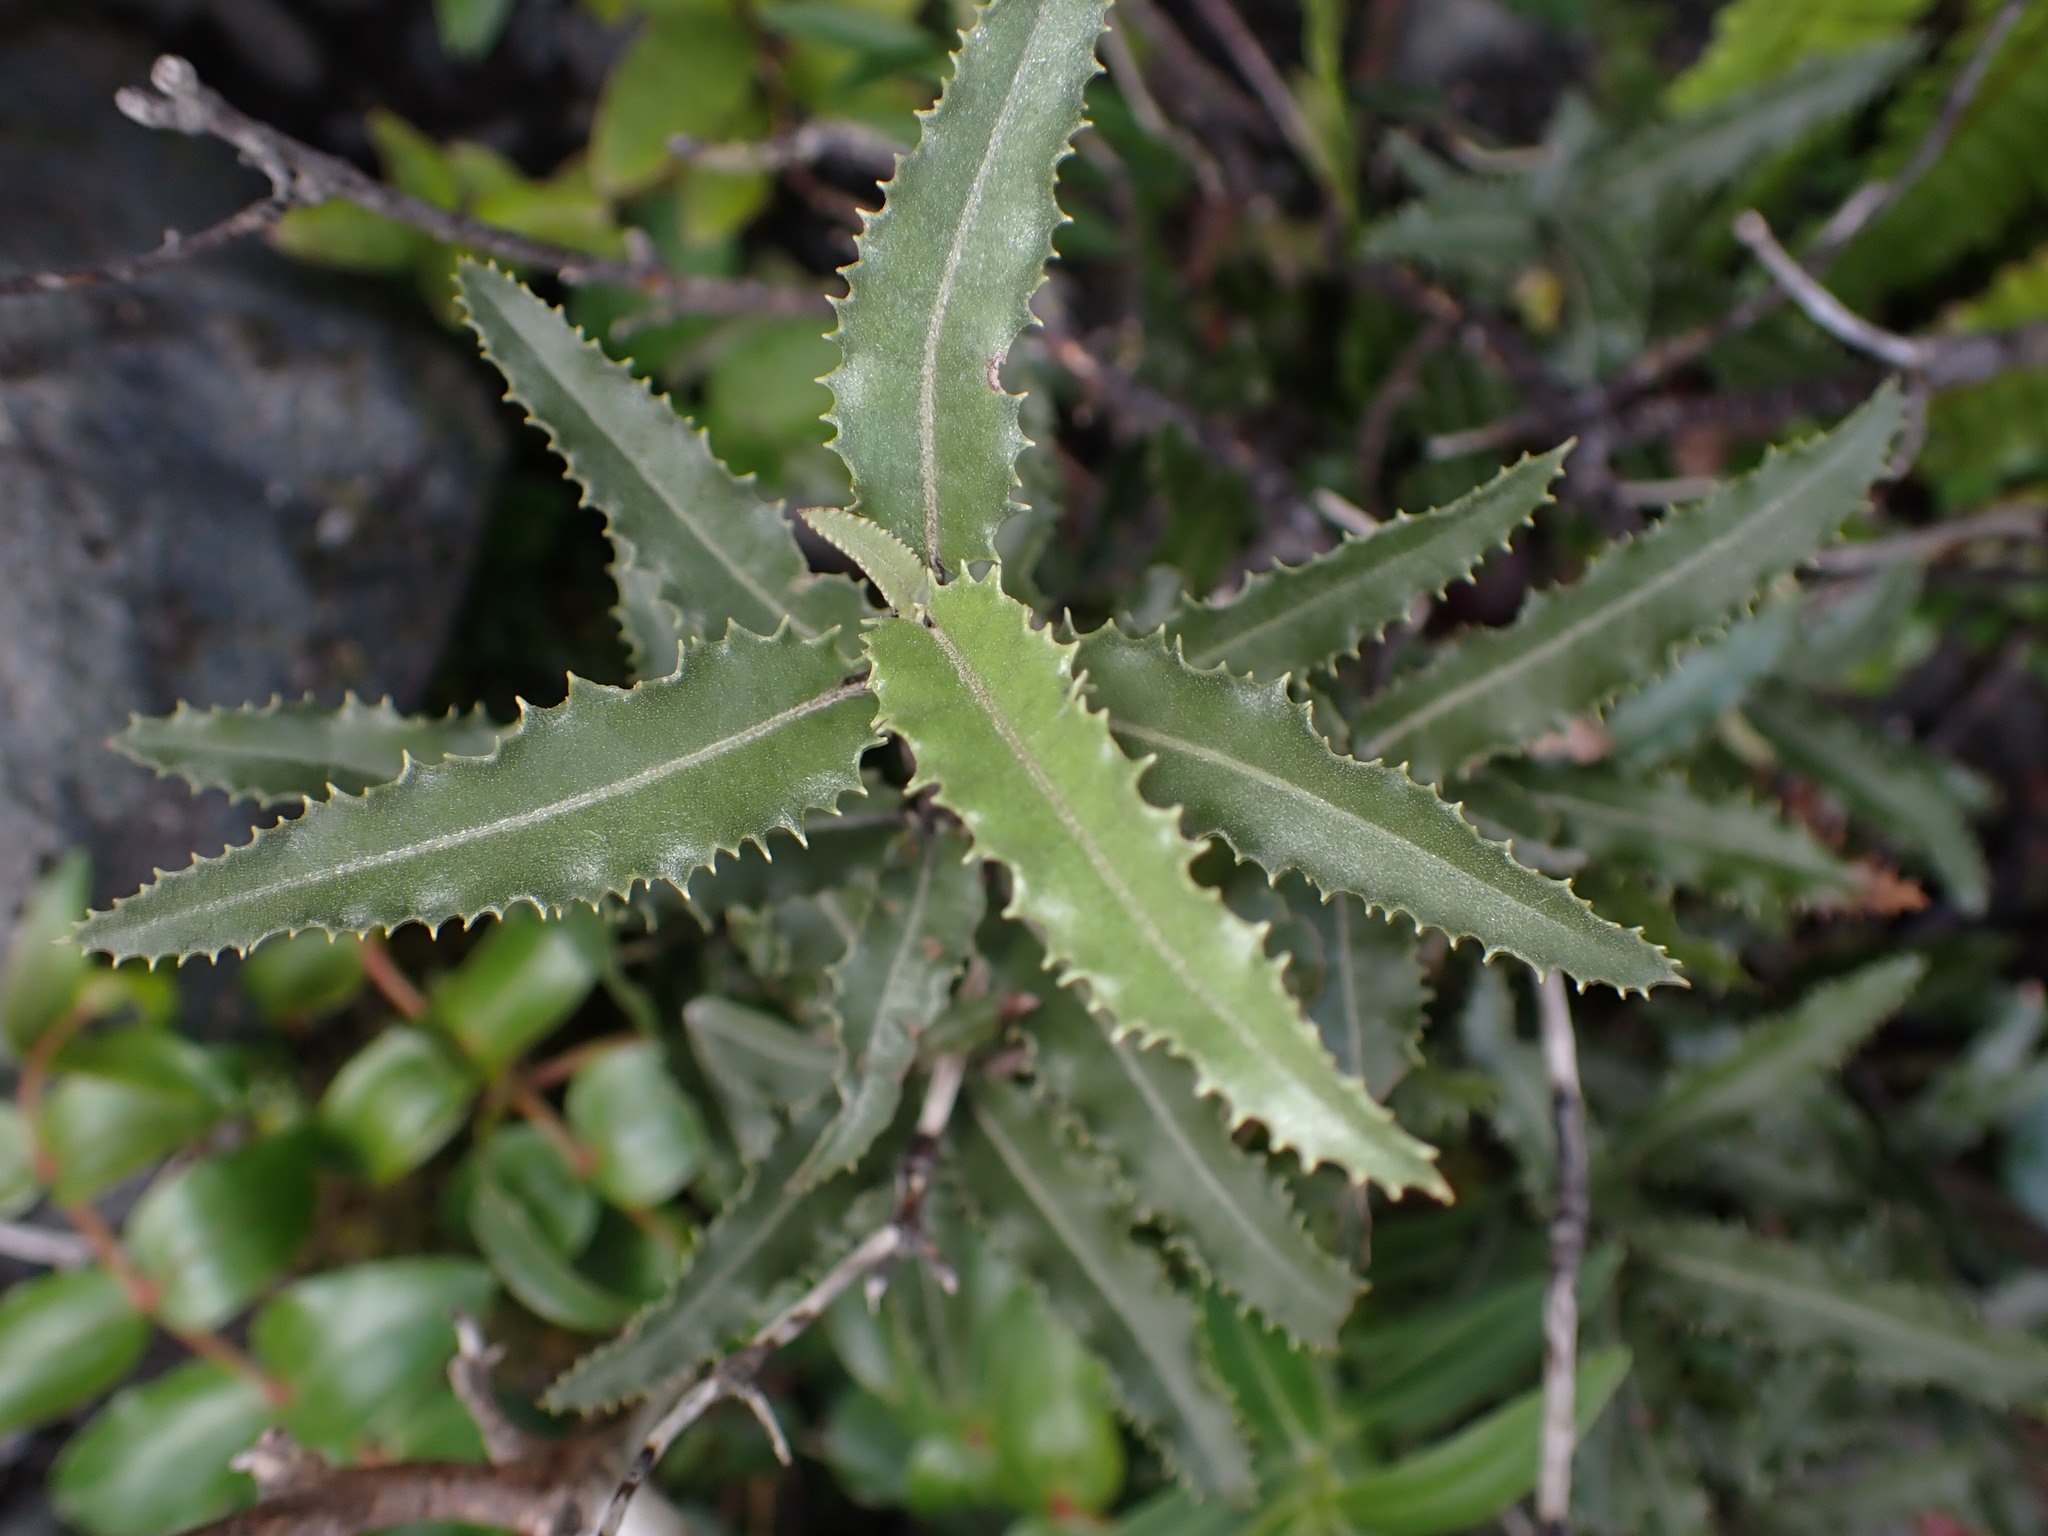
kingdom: Plantae
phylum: Tracheophyta
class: Magnoliopsida
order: Asterales
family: Asteraceae
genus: Olearia
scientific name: Olearia ilicifolia
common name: Maori-holly
